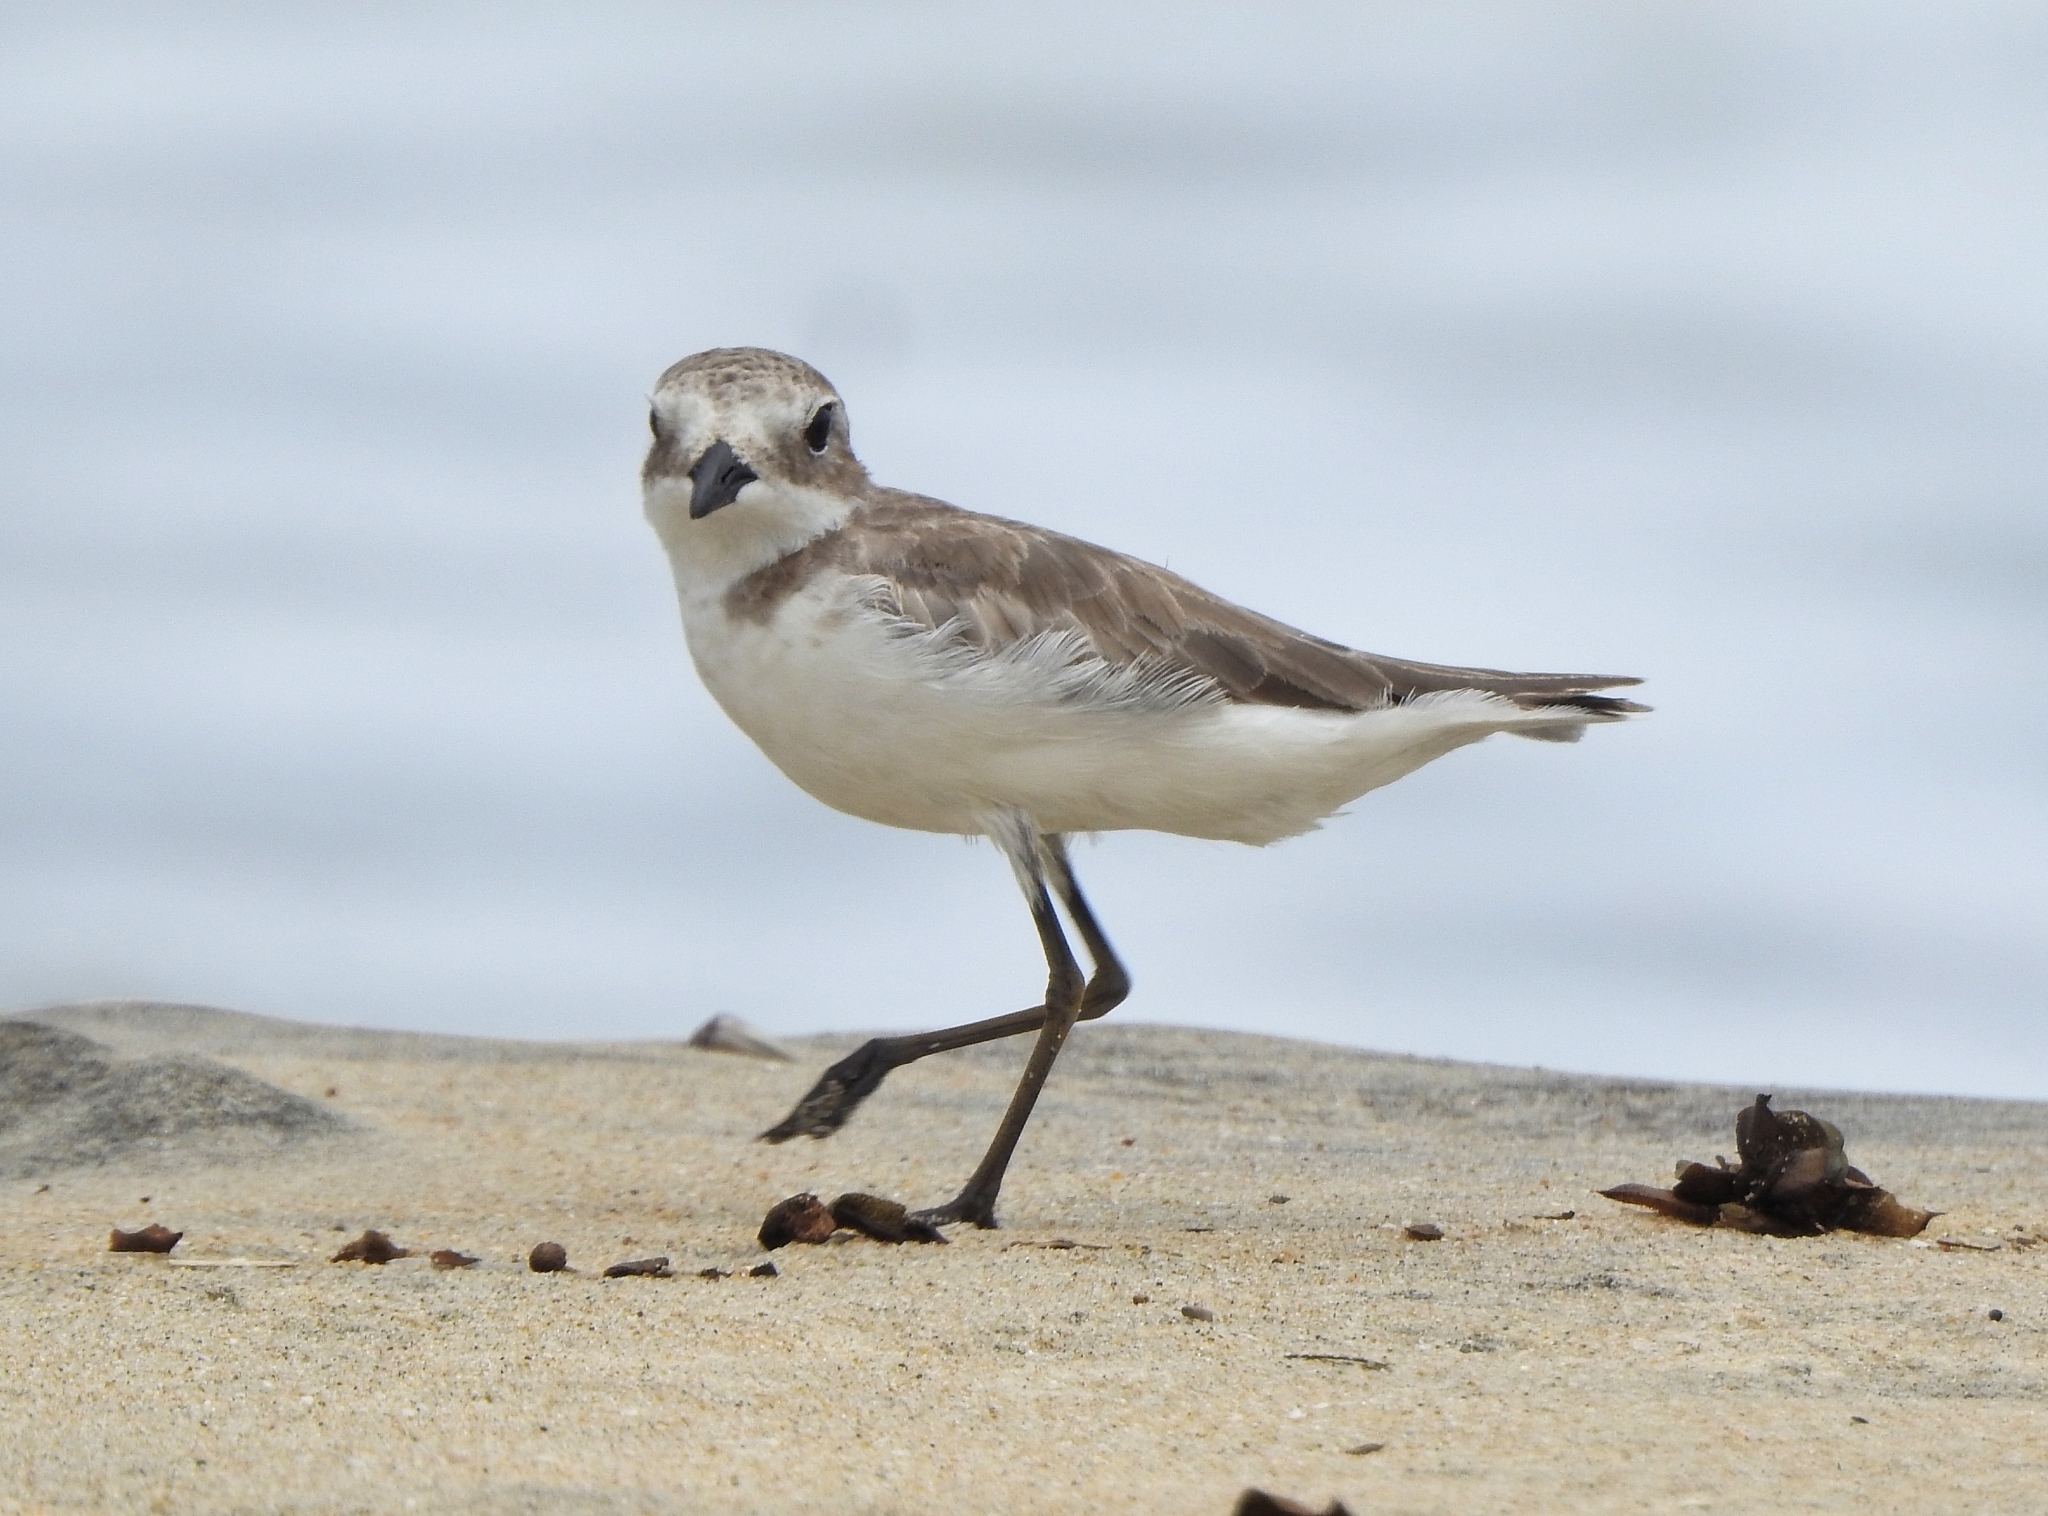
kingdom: Animalia
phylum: Chordata
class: Aves
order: Charadriiformes
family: Charadriidae
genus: Anarhynchus
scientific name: Anarhynchus
